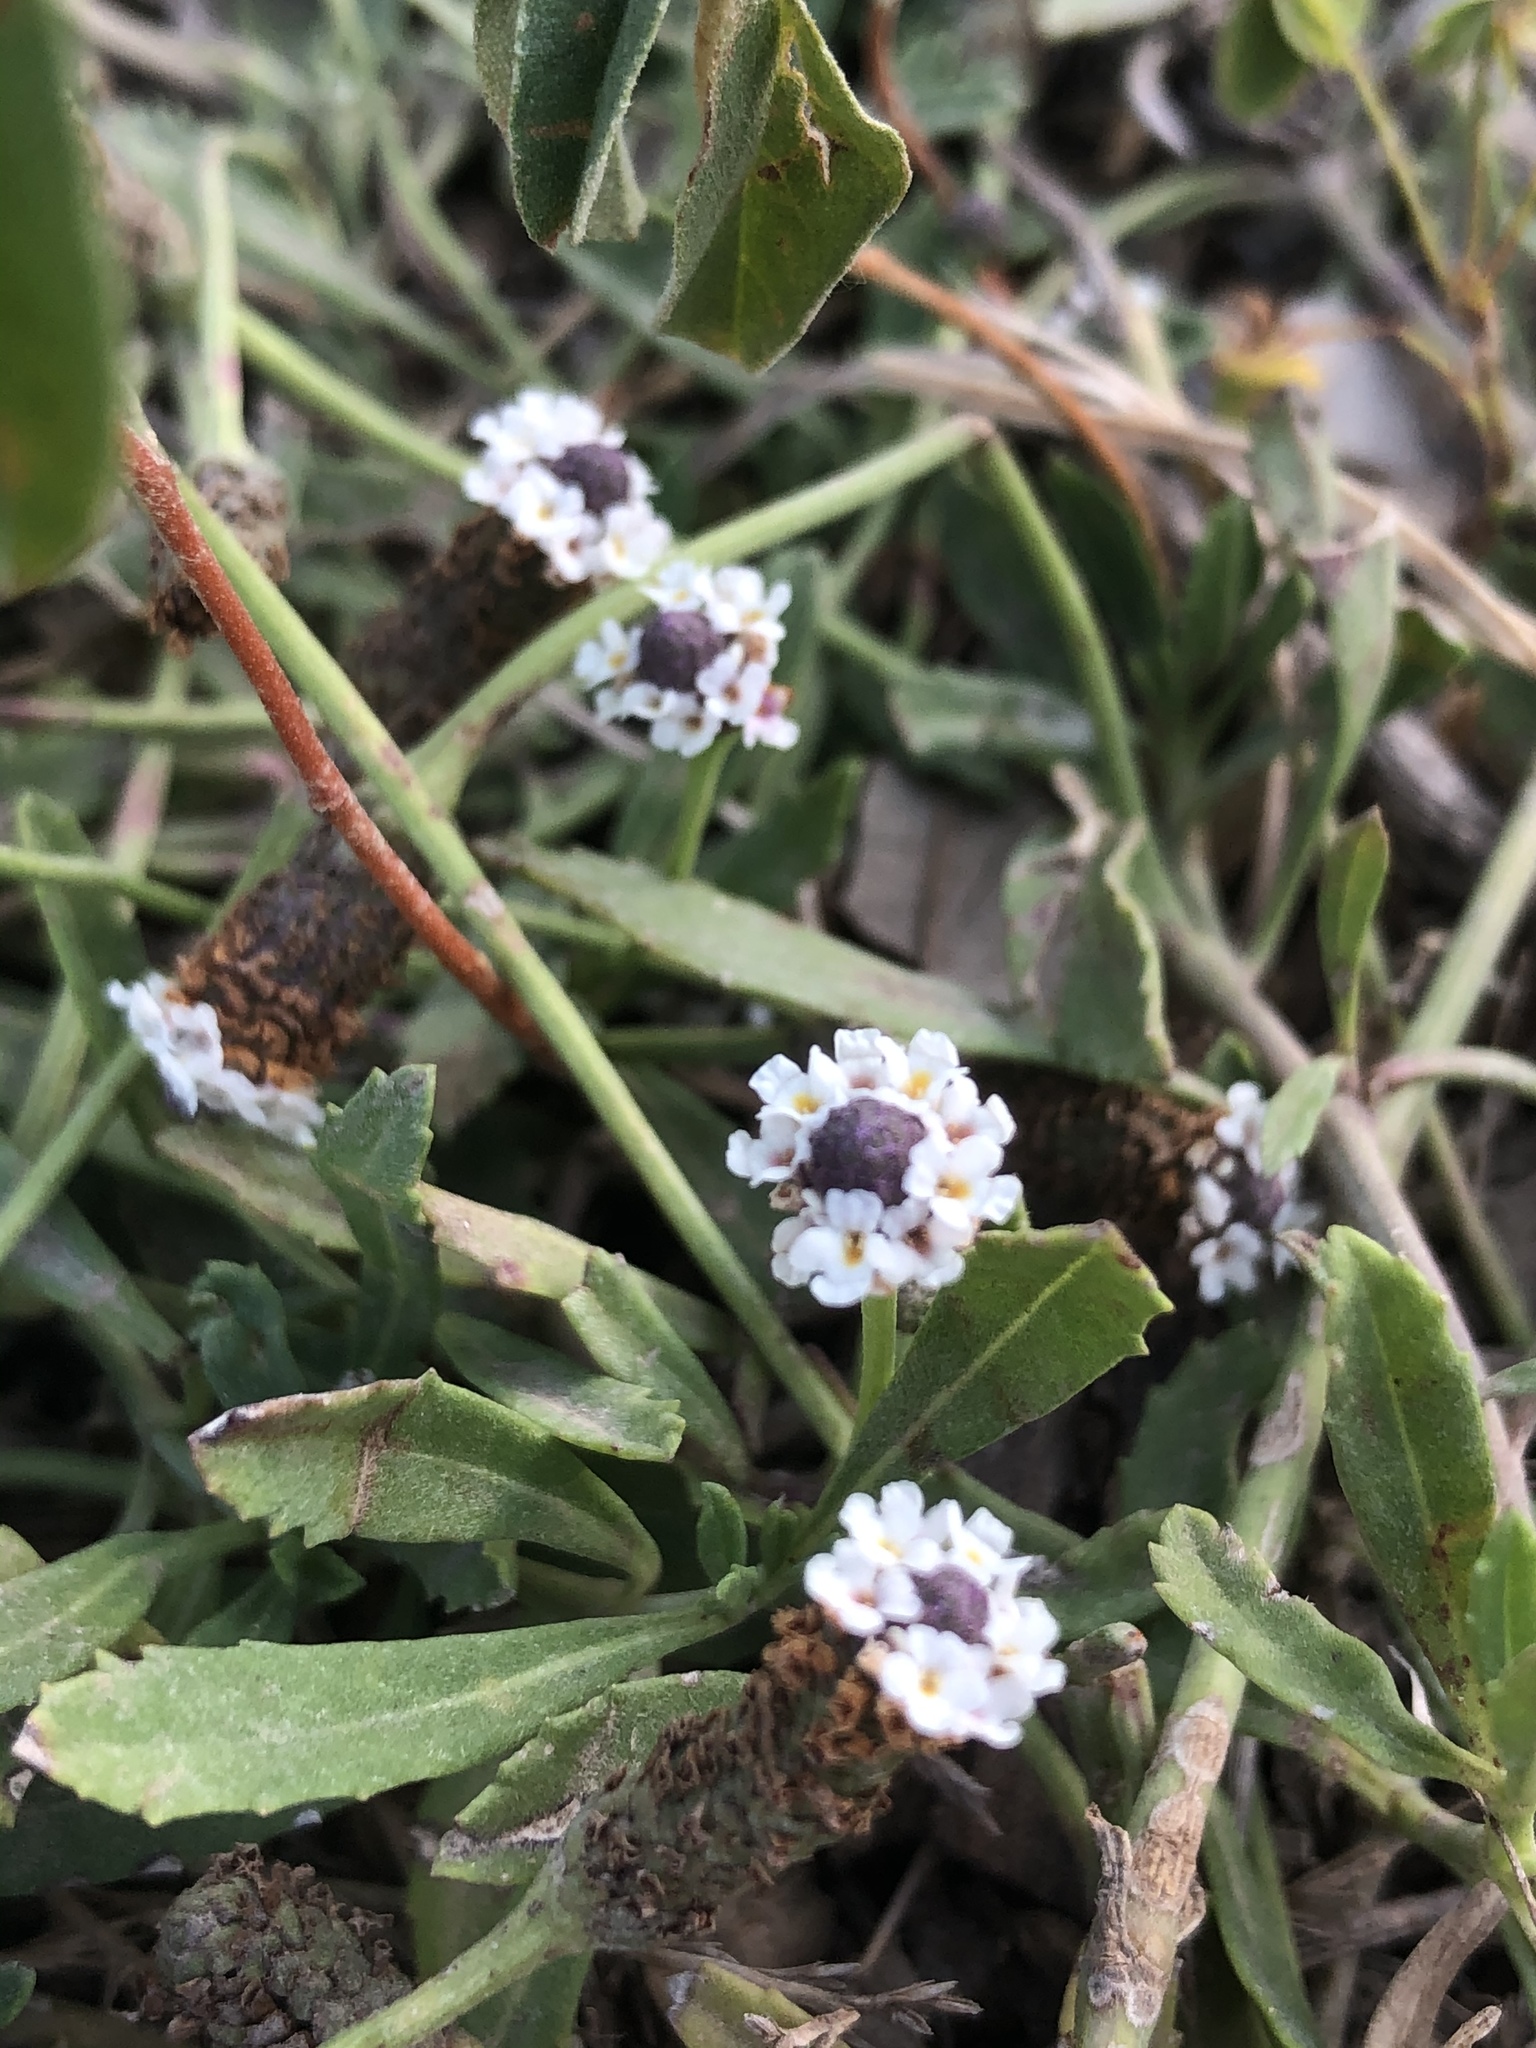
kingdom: Plantae
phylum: Tracheophyta
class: Magnoliopsida
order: Lamiales
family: Verbenaceae
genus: Phyla
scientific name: Phyla nodiflora
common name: Frogfruit
